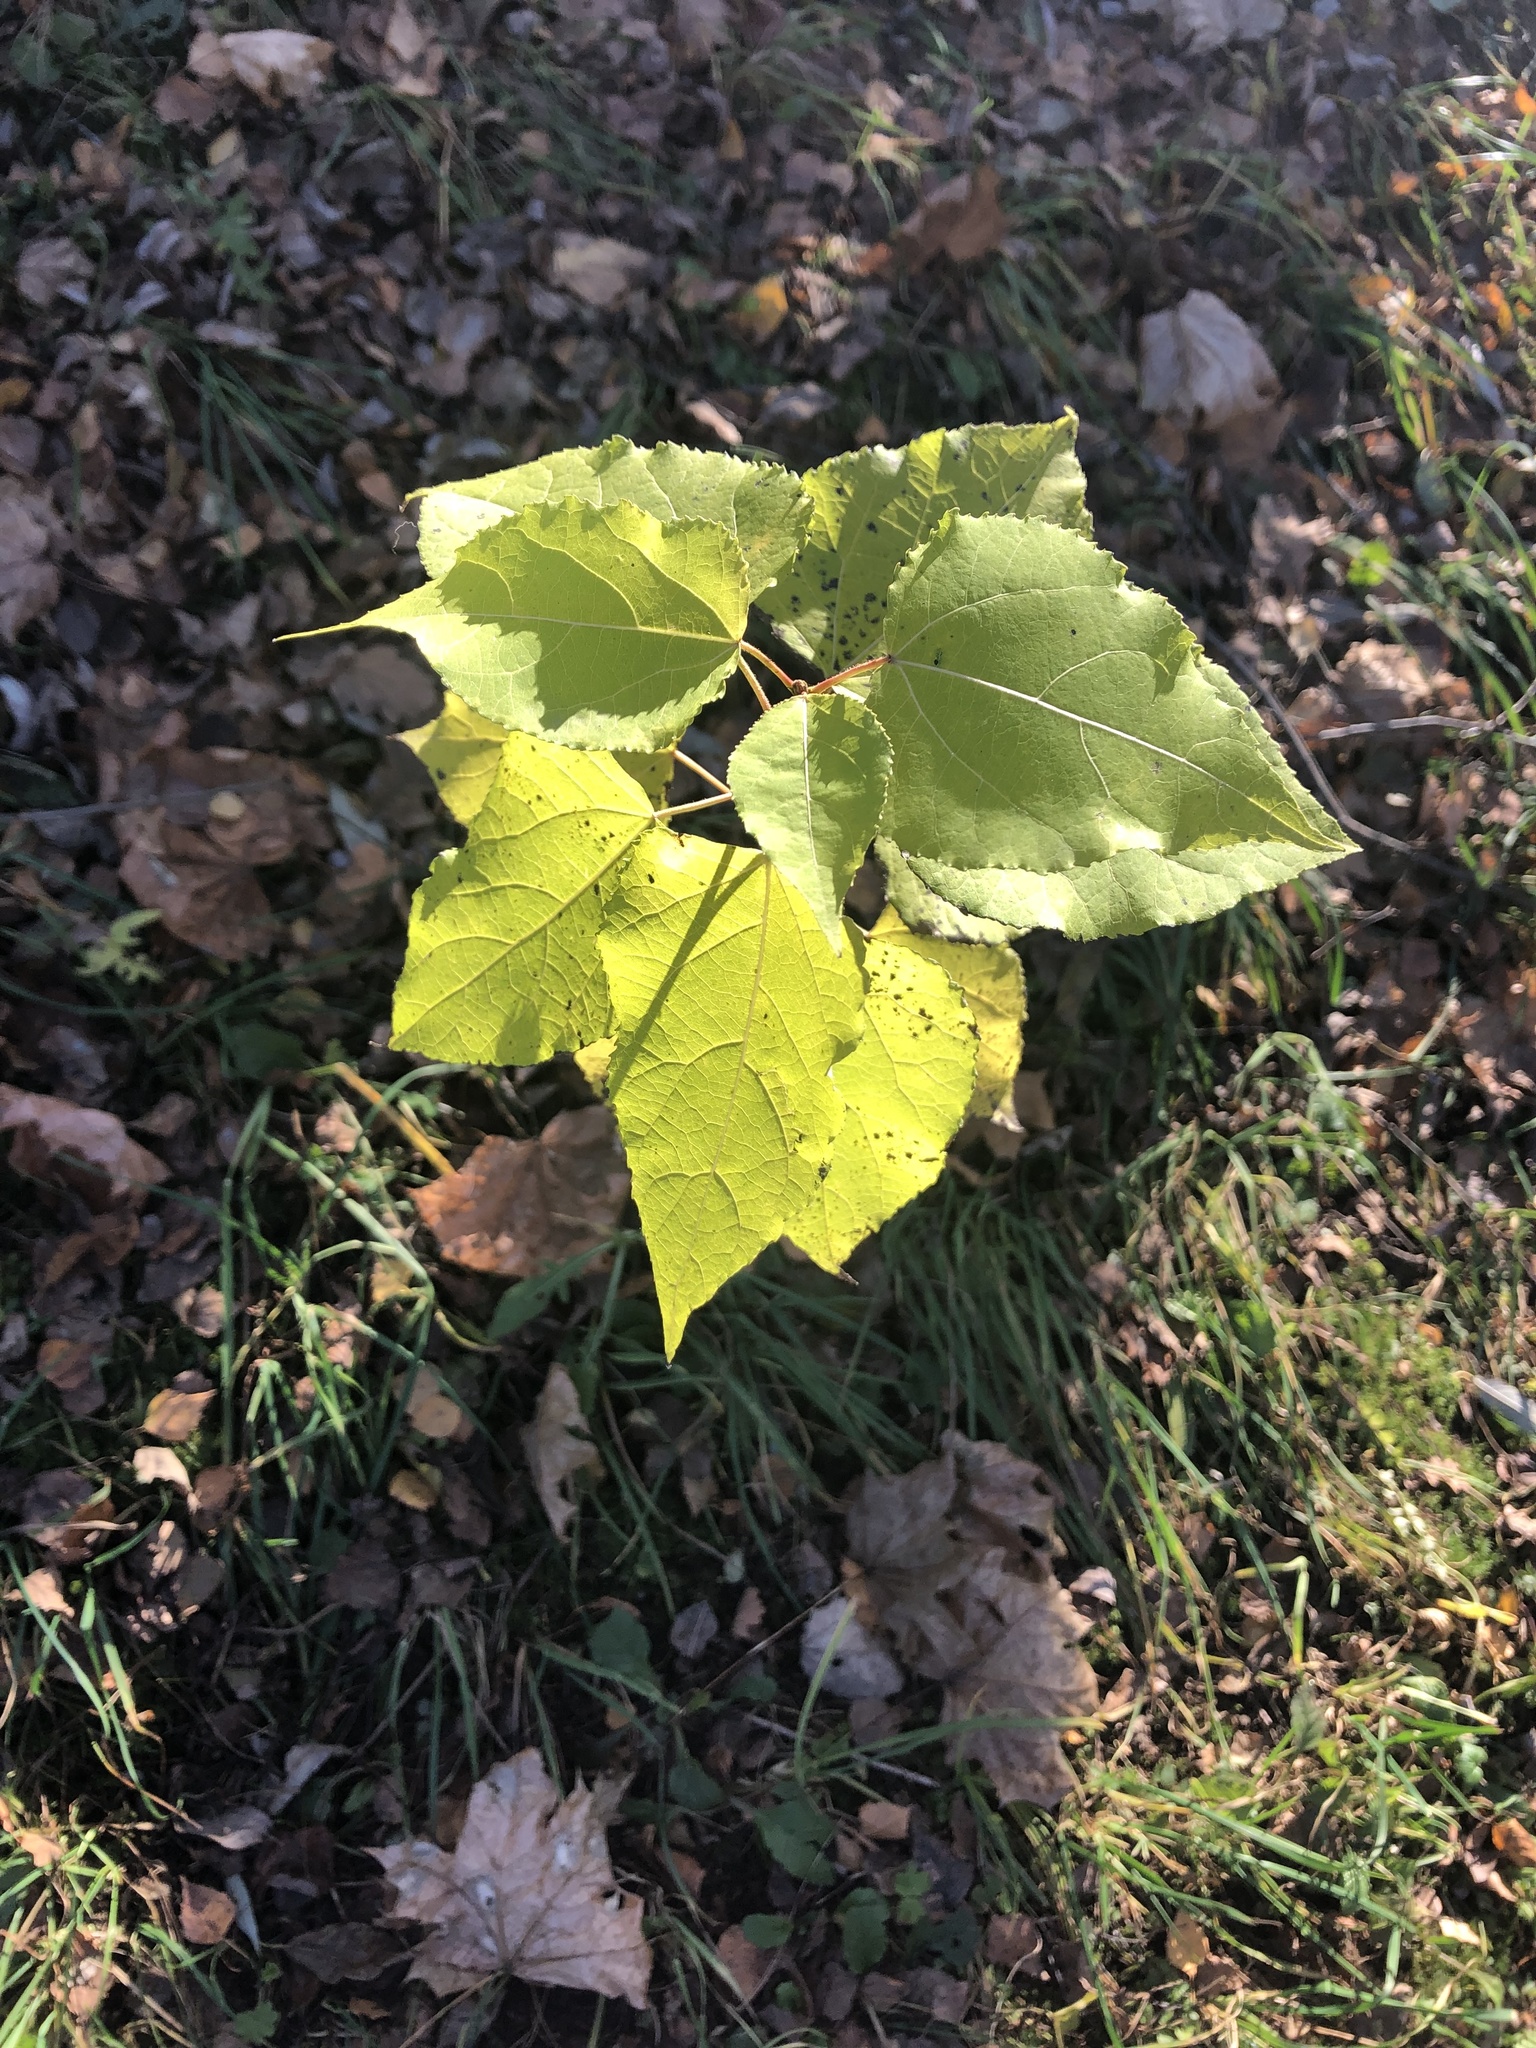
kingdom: Plantae
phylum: Tracheophyta
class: Magnoliopsida
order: Malpighiales
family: Salicaceae
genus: Populus
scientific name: Populus tremula
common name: European aspen
